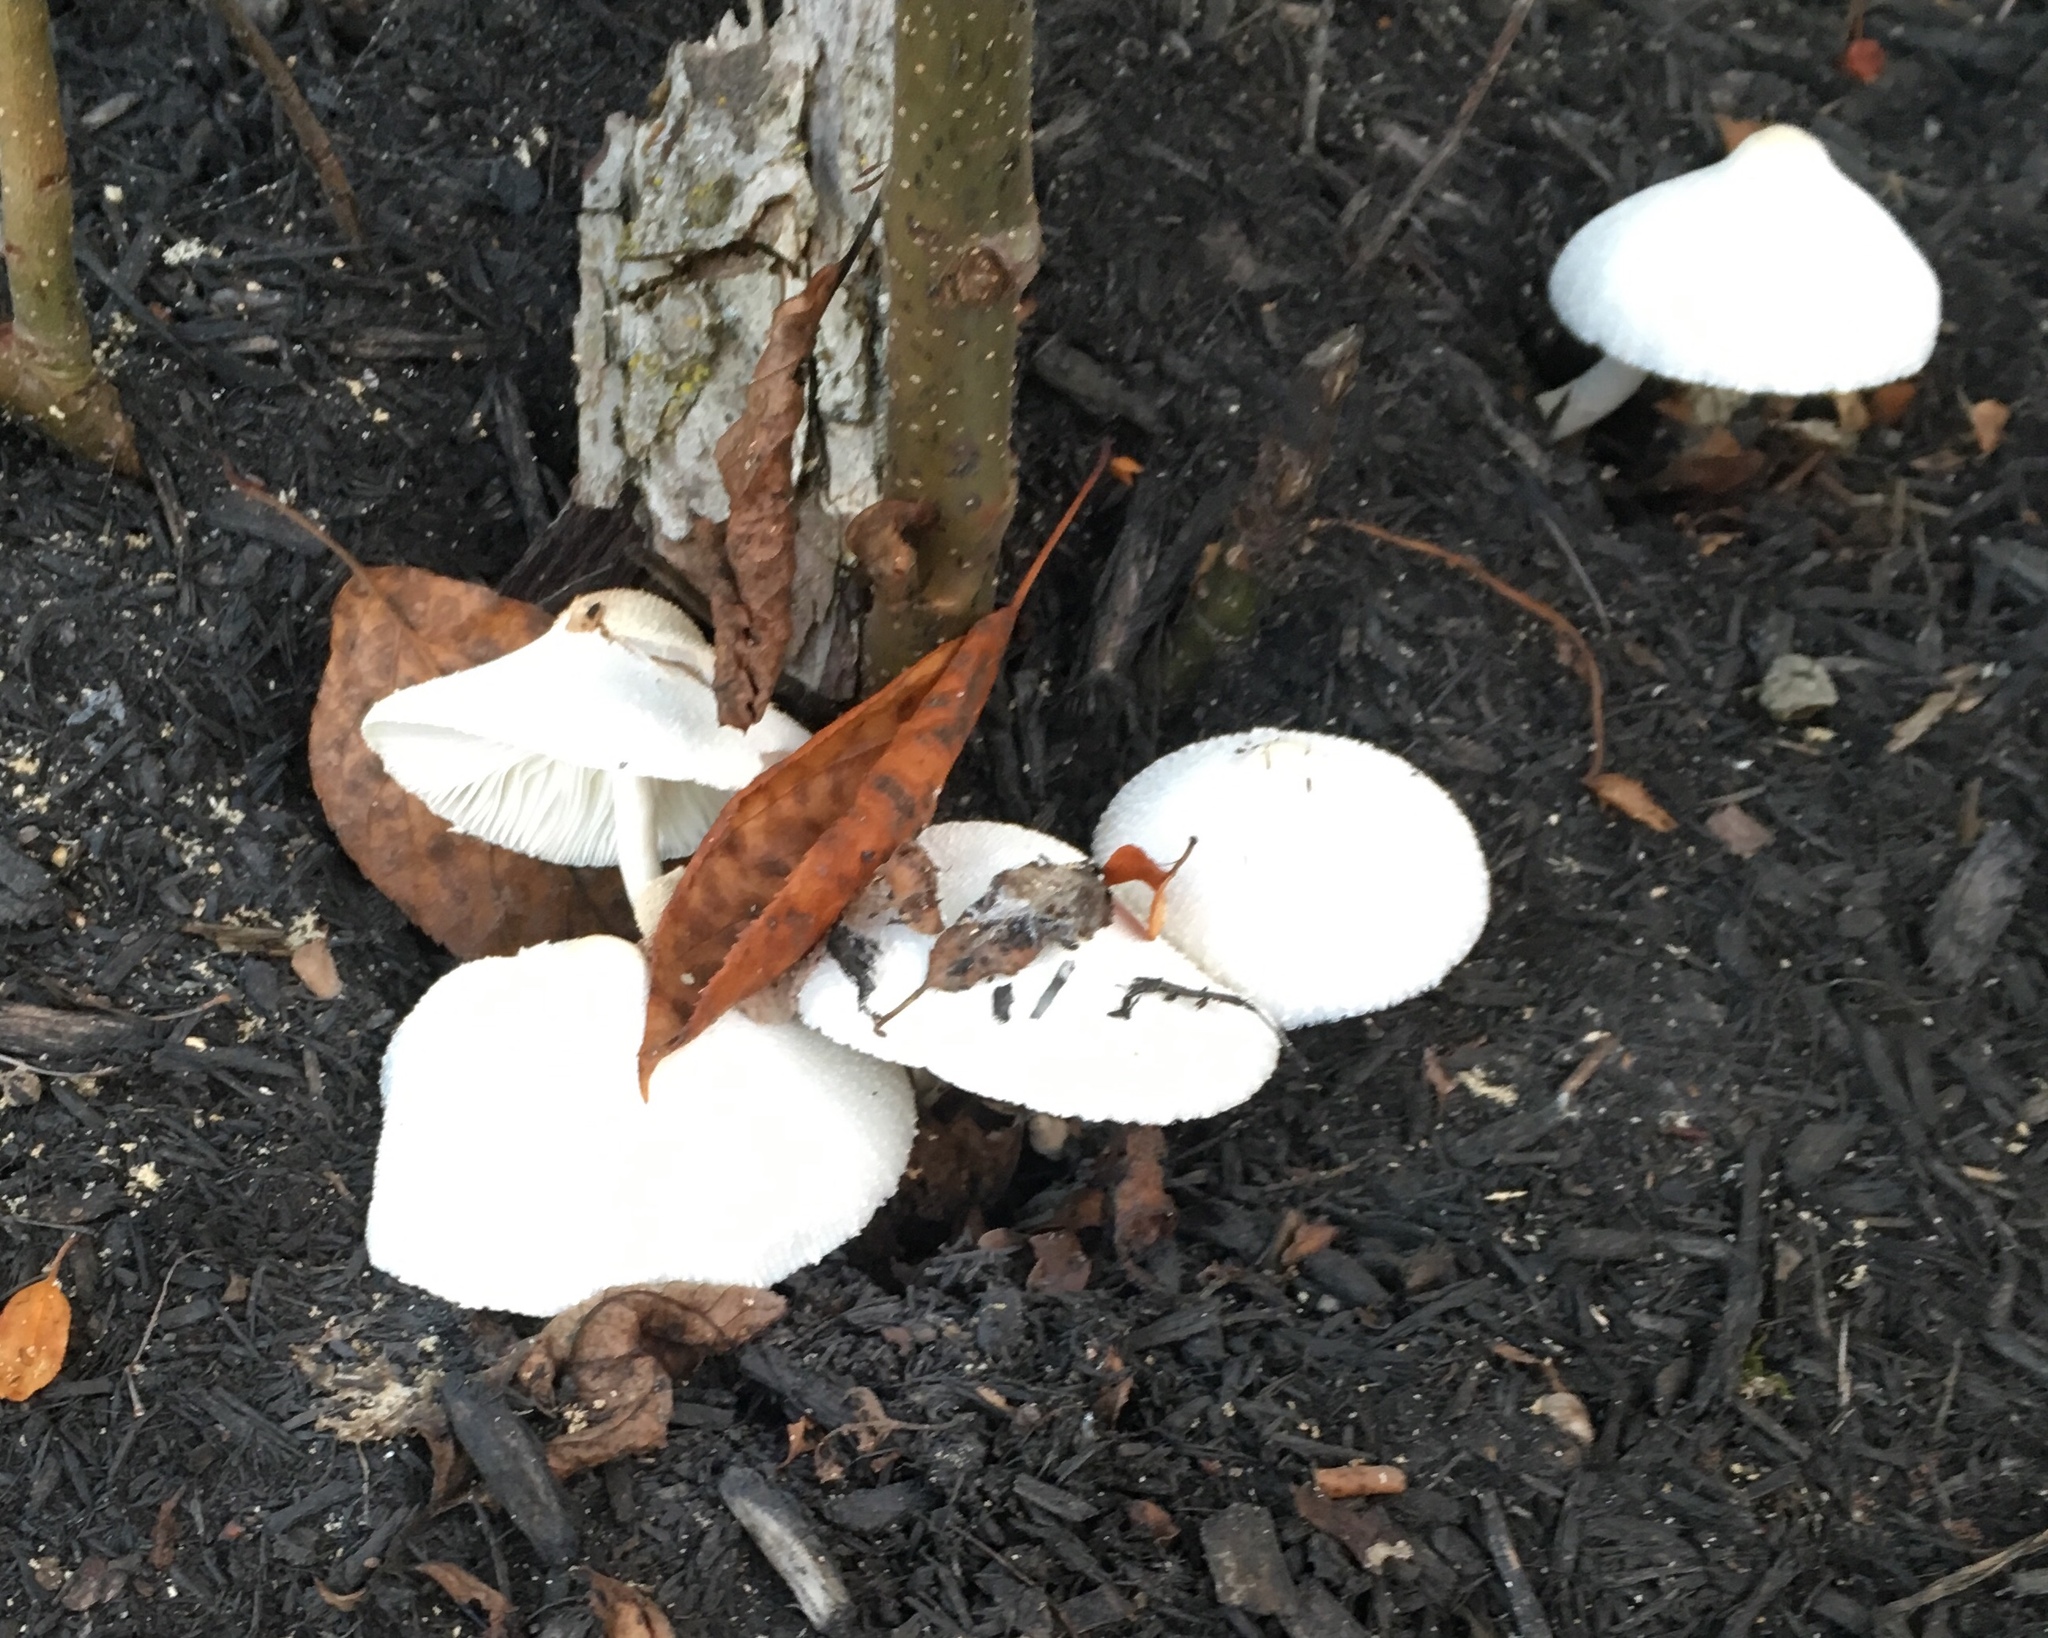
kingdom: Fungi
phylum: Basidiomycota
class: Agaricomycetes
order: Agaricales
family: Agaricaceae
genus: Leucocoprinus
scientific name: Leucocoprinus cepistipes
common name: Onion-stalk parasol
